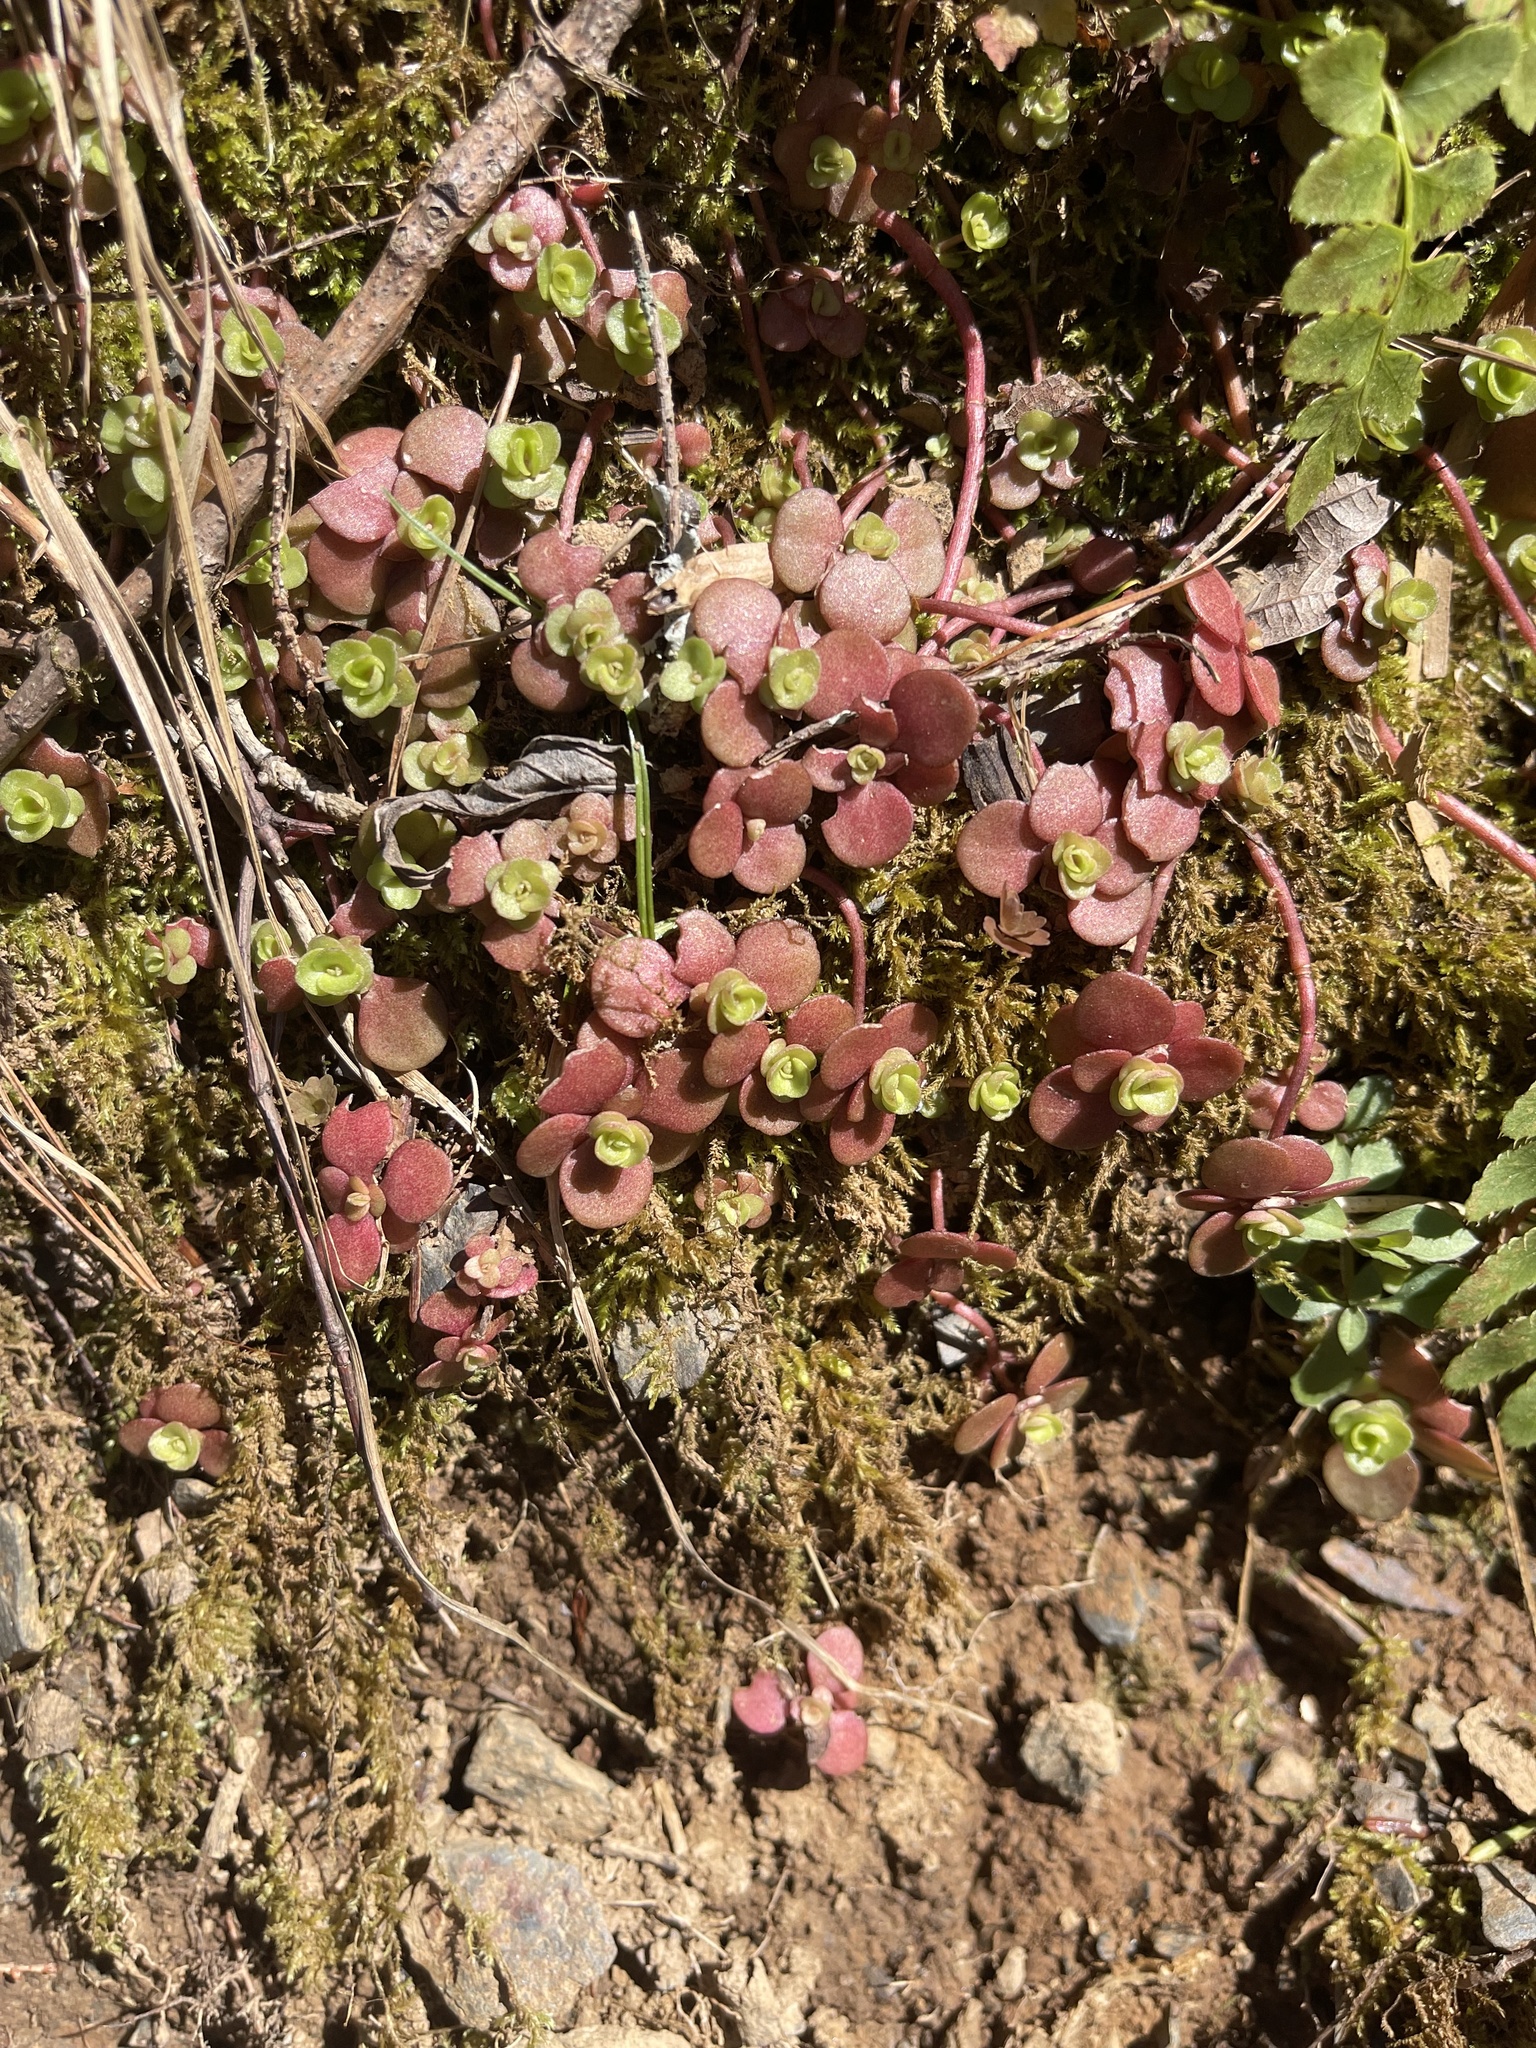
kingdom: Plantae
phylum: Tracheophyta
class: Magnoliopsida
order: Saxifragales
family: Crassulaceae
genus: Sedum
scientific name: Sedum ternatum
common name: Wild stonecrop
